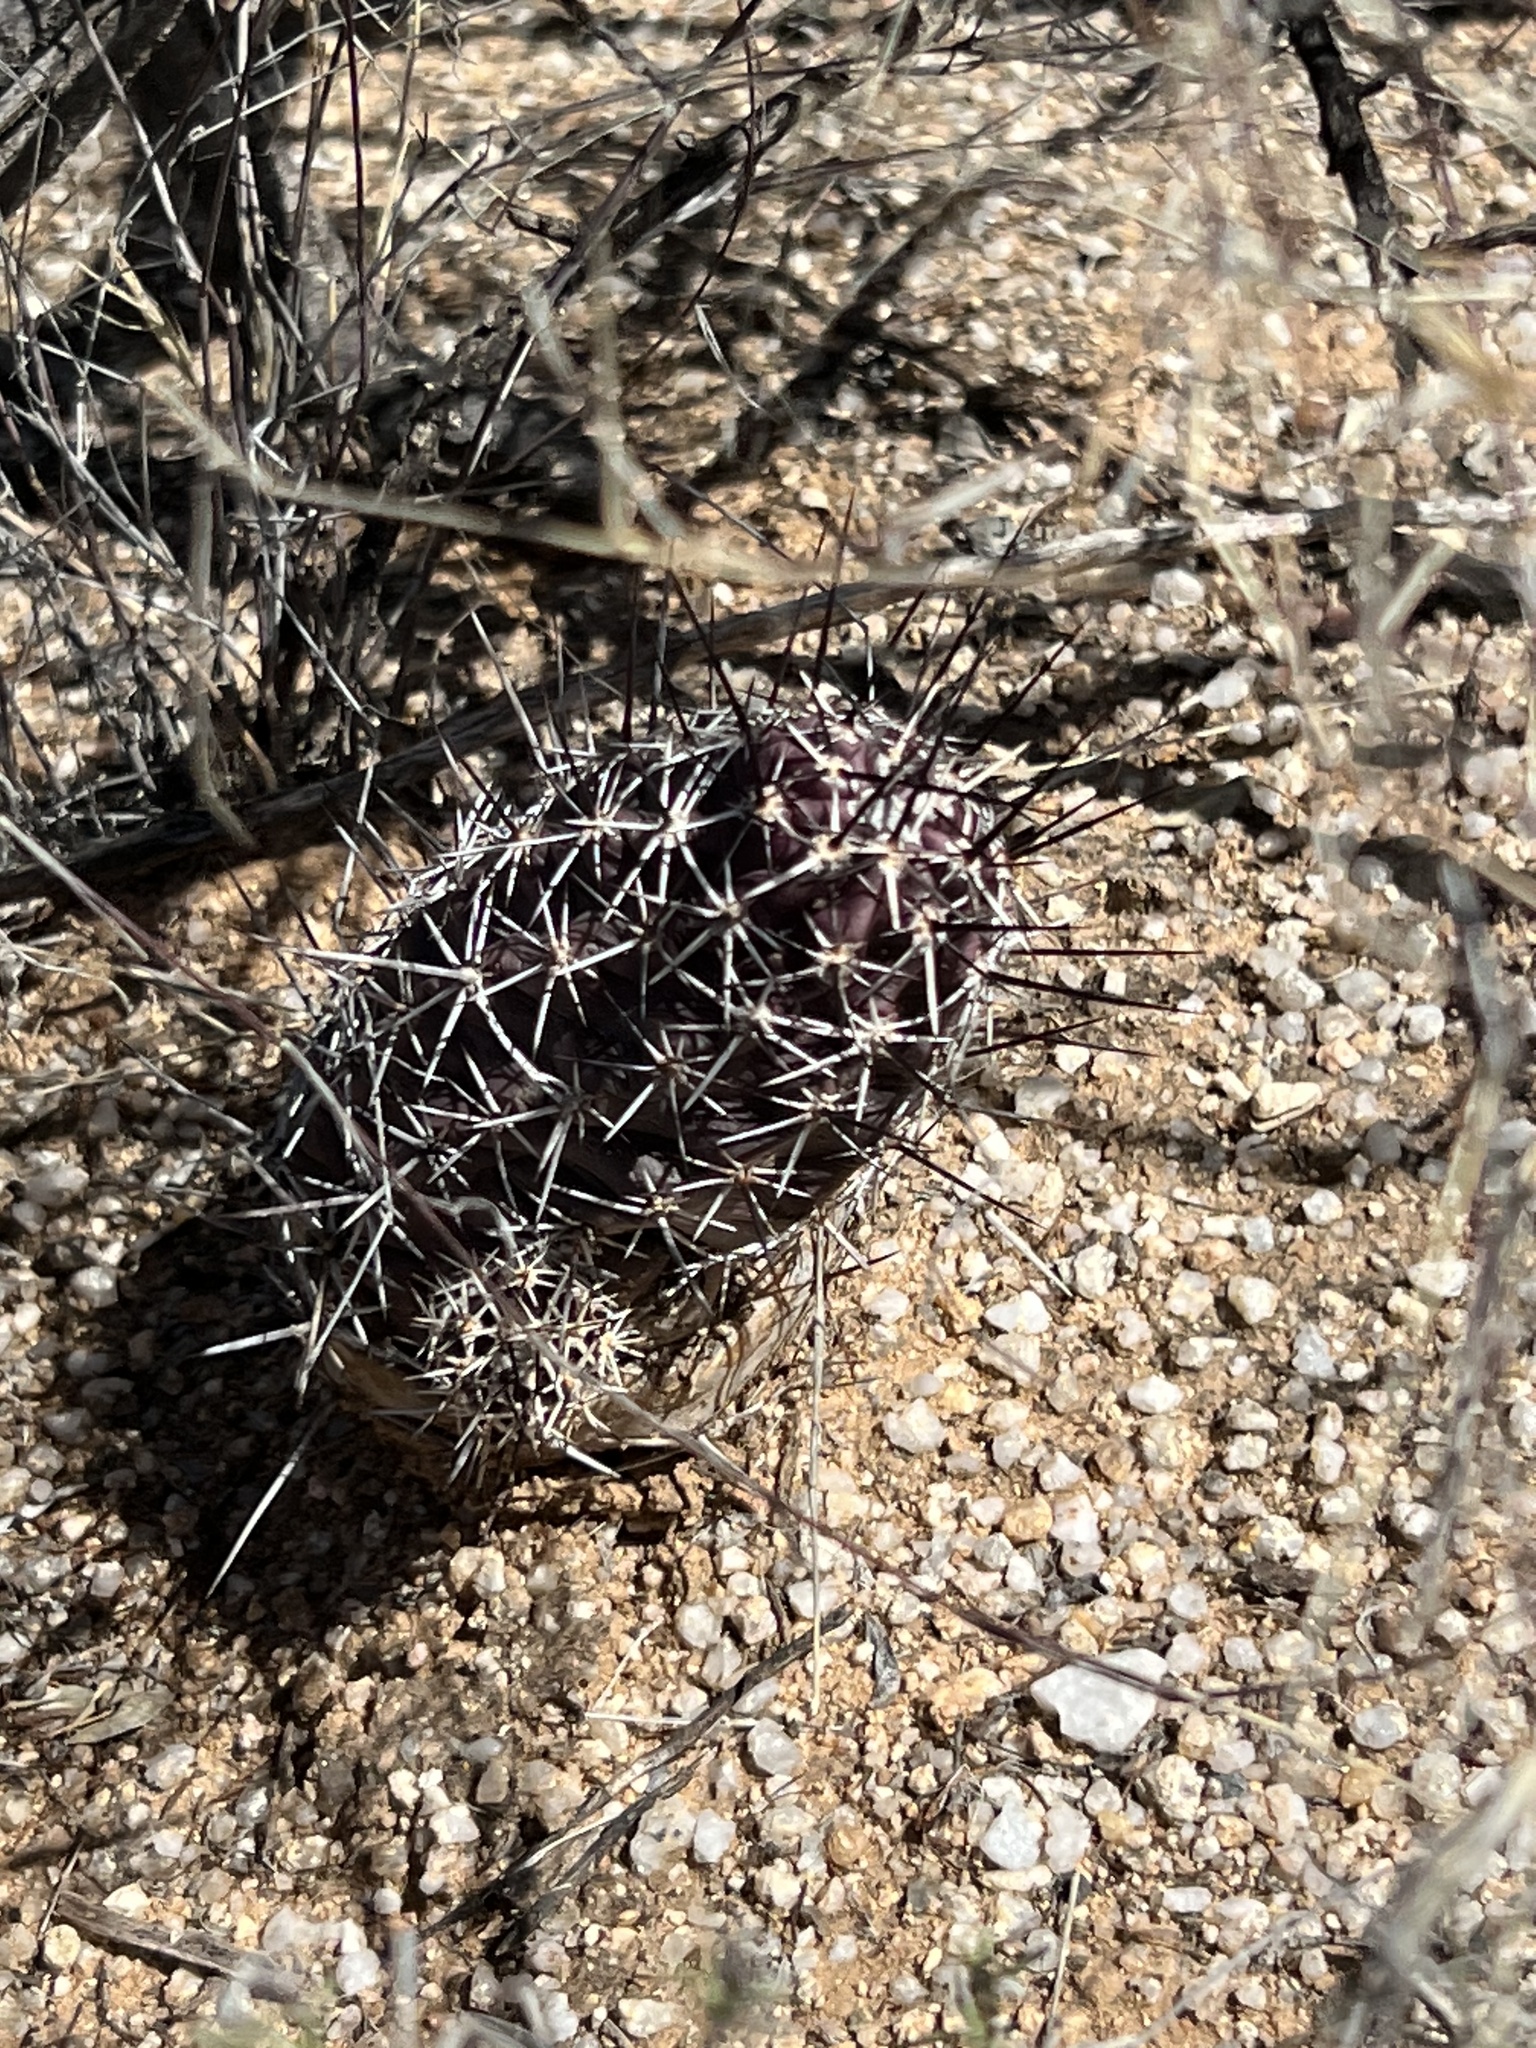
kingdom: Plantae
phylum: Tracheophyta
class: Magnoliopsida
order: Caryophyllales
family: Cactaceae
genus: Echinocereus
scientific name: Echinocereus fendleri
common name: Fendler's hedgehog cactus
